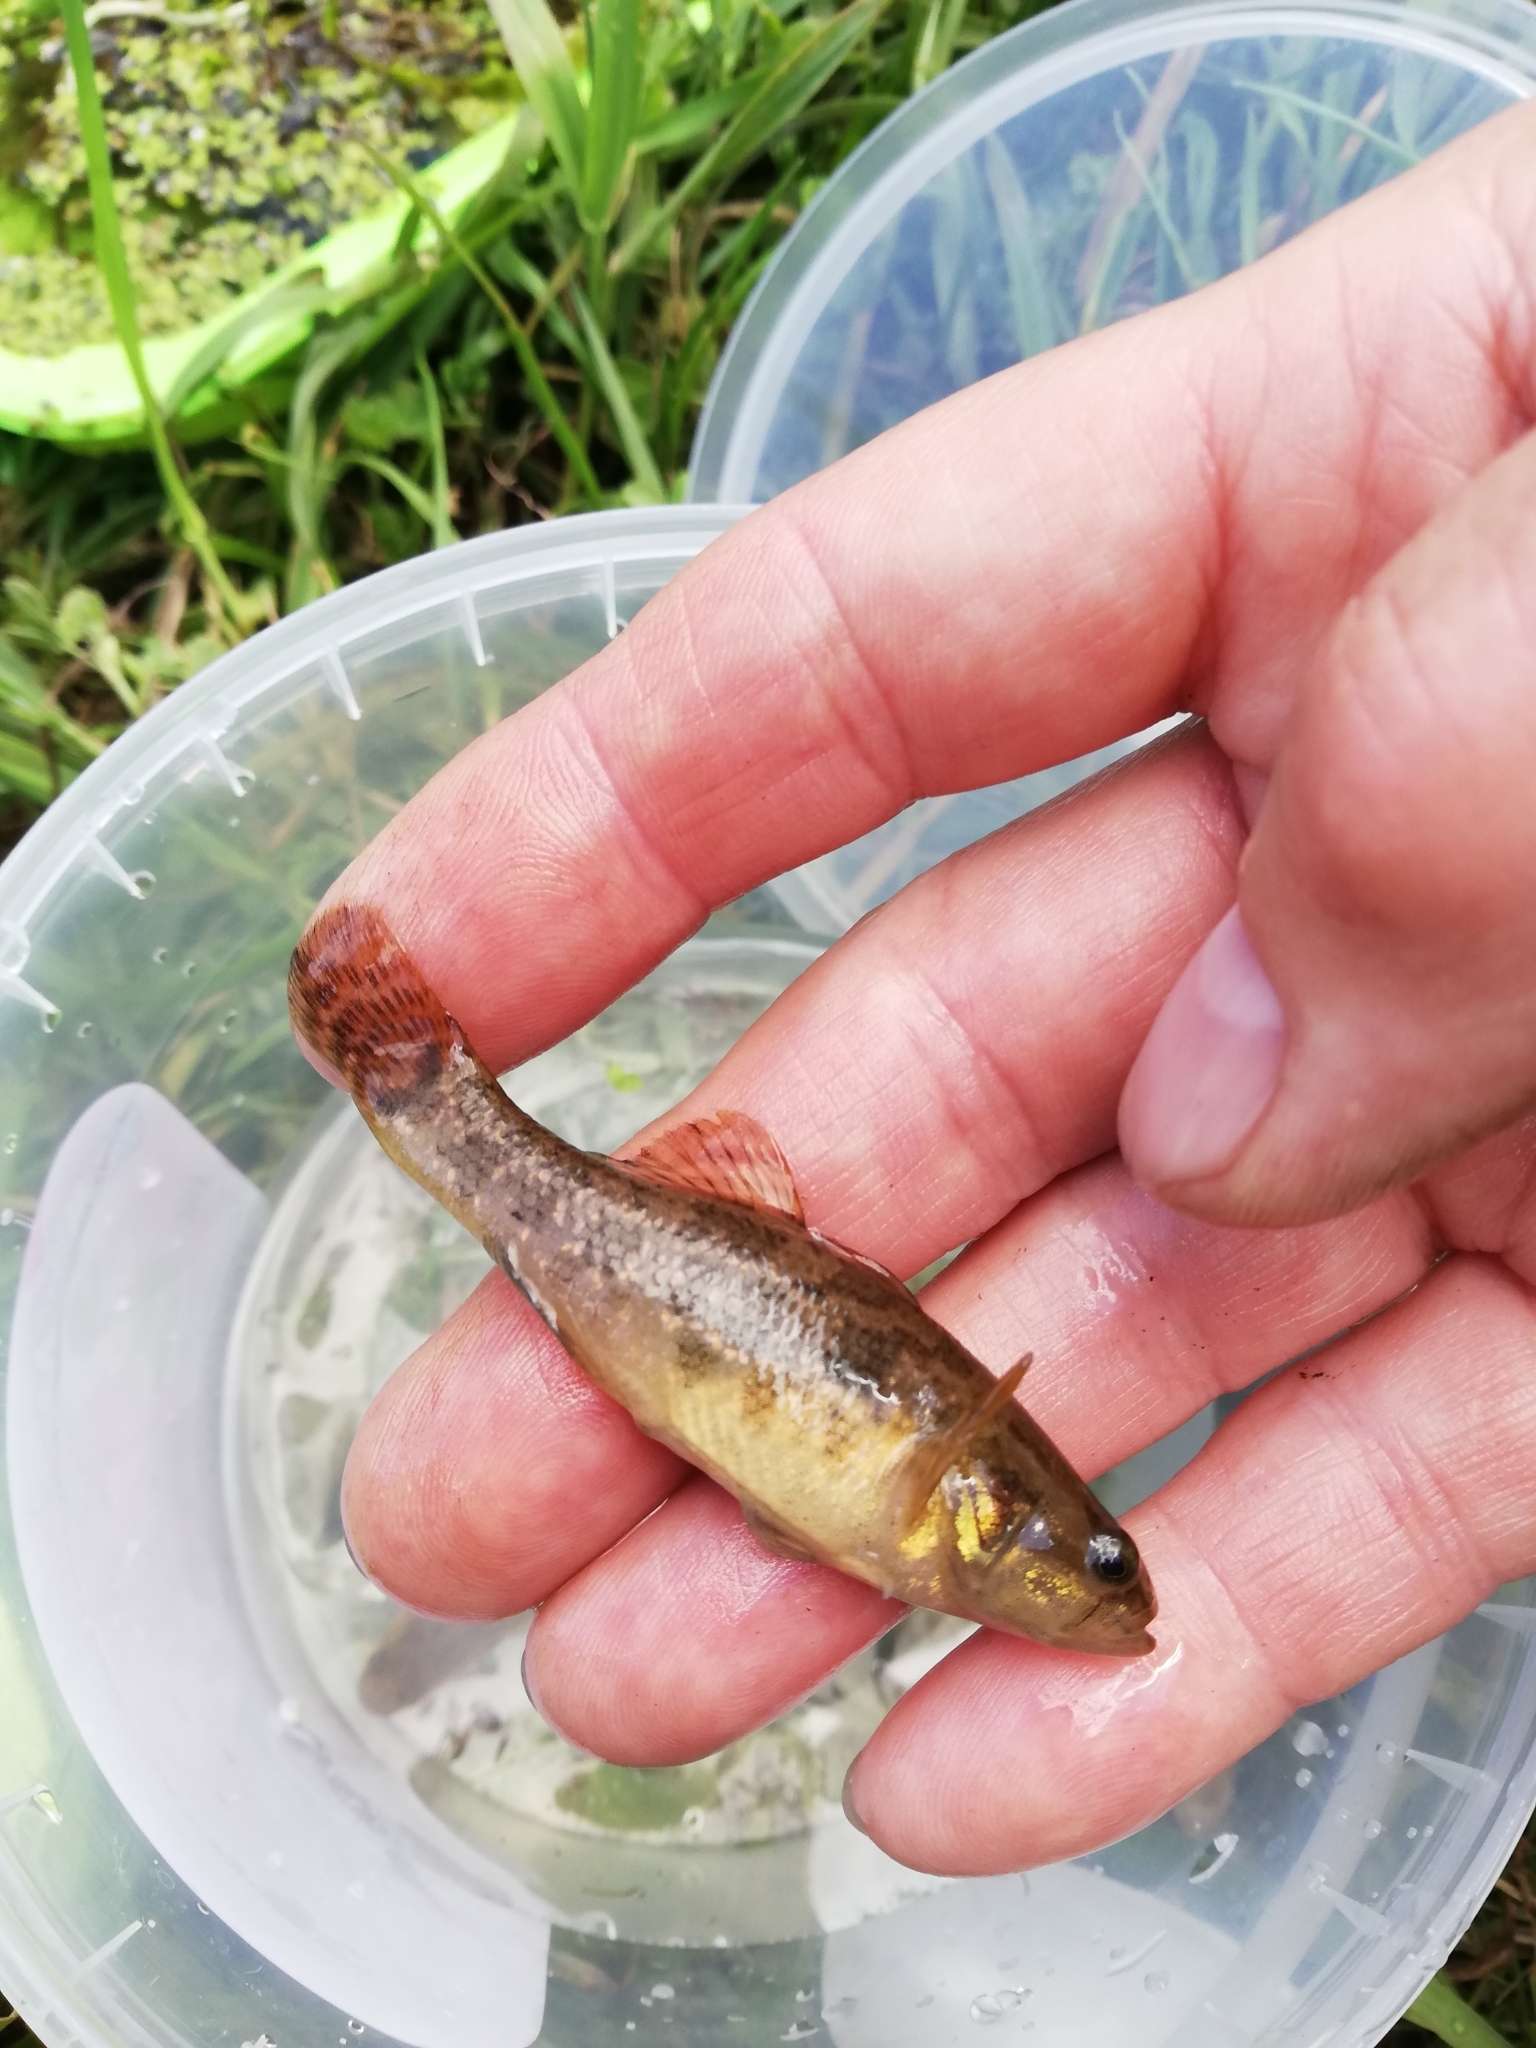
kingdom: Animalia
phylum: Chordata
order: Perciformes
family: Odontobutidae
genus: Perccottus
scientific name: Perccottus glenii
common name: Amur sleeper
